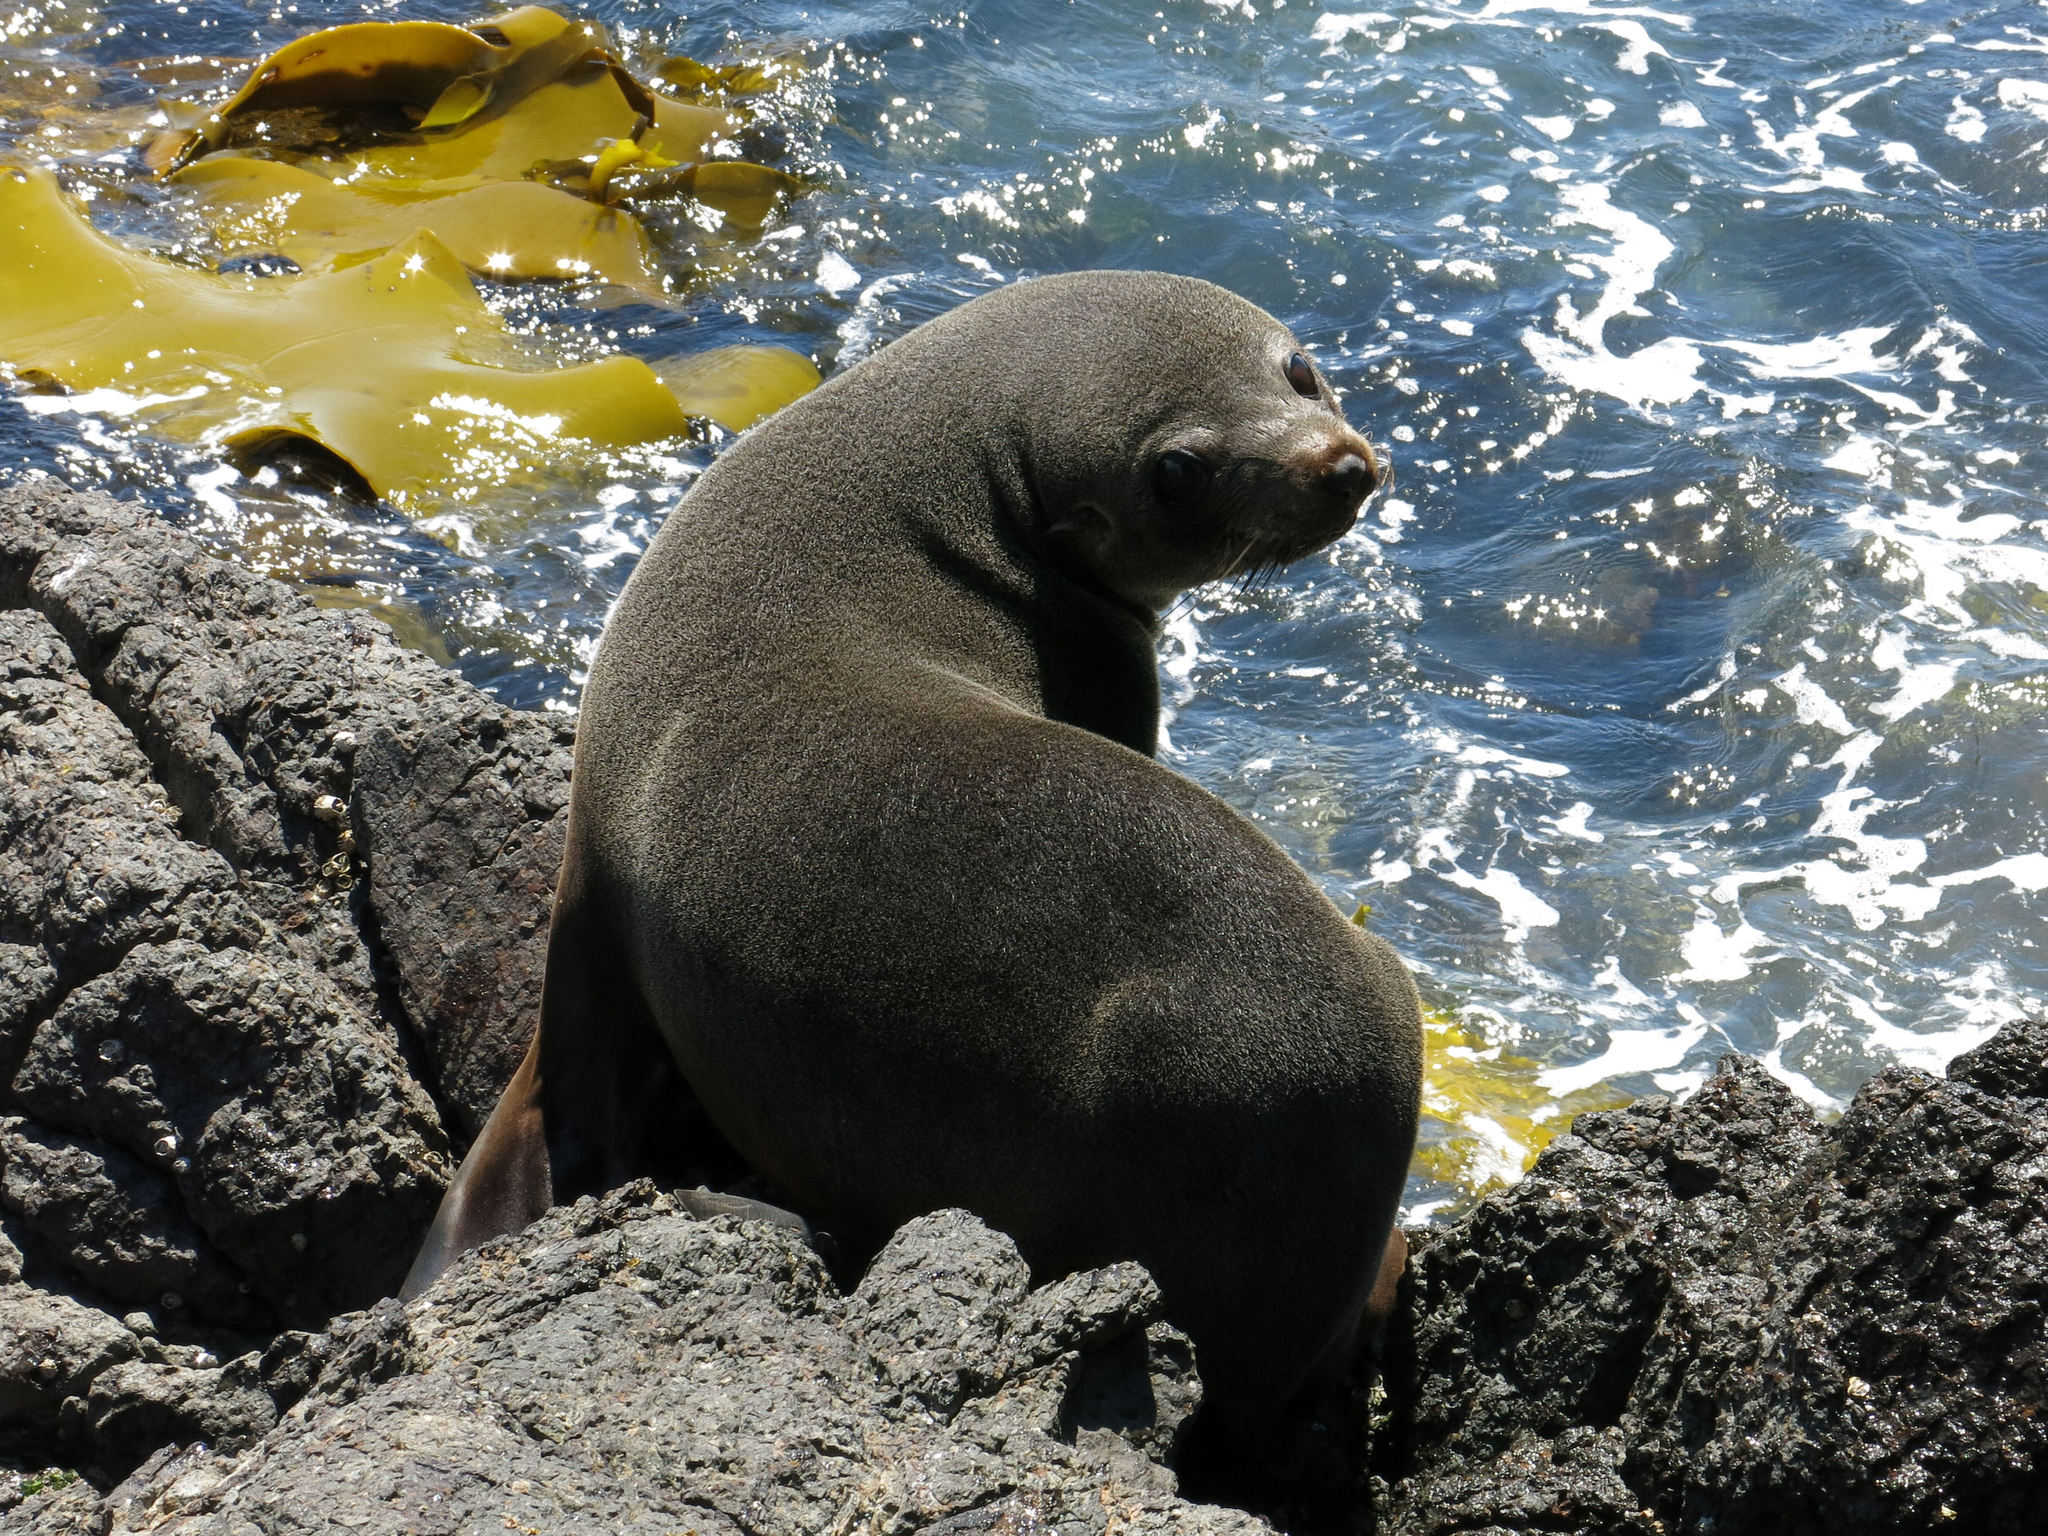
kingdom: Animalia
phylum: Chordata
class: Mammalia
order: Carnivora
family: Otariidae
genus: Arctocephalus
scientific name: Arctocephalus forsteri
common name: New zealand fur seal
